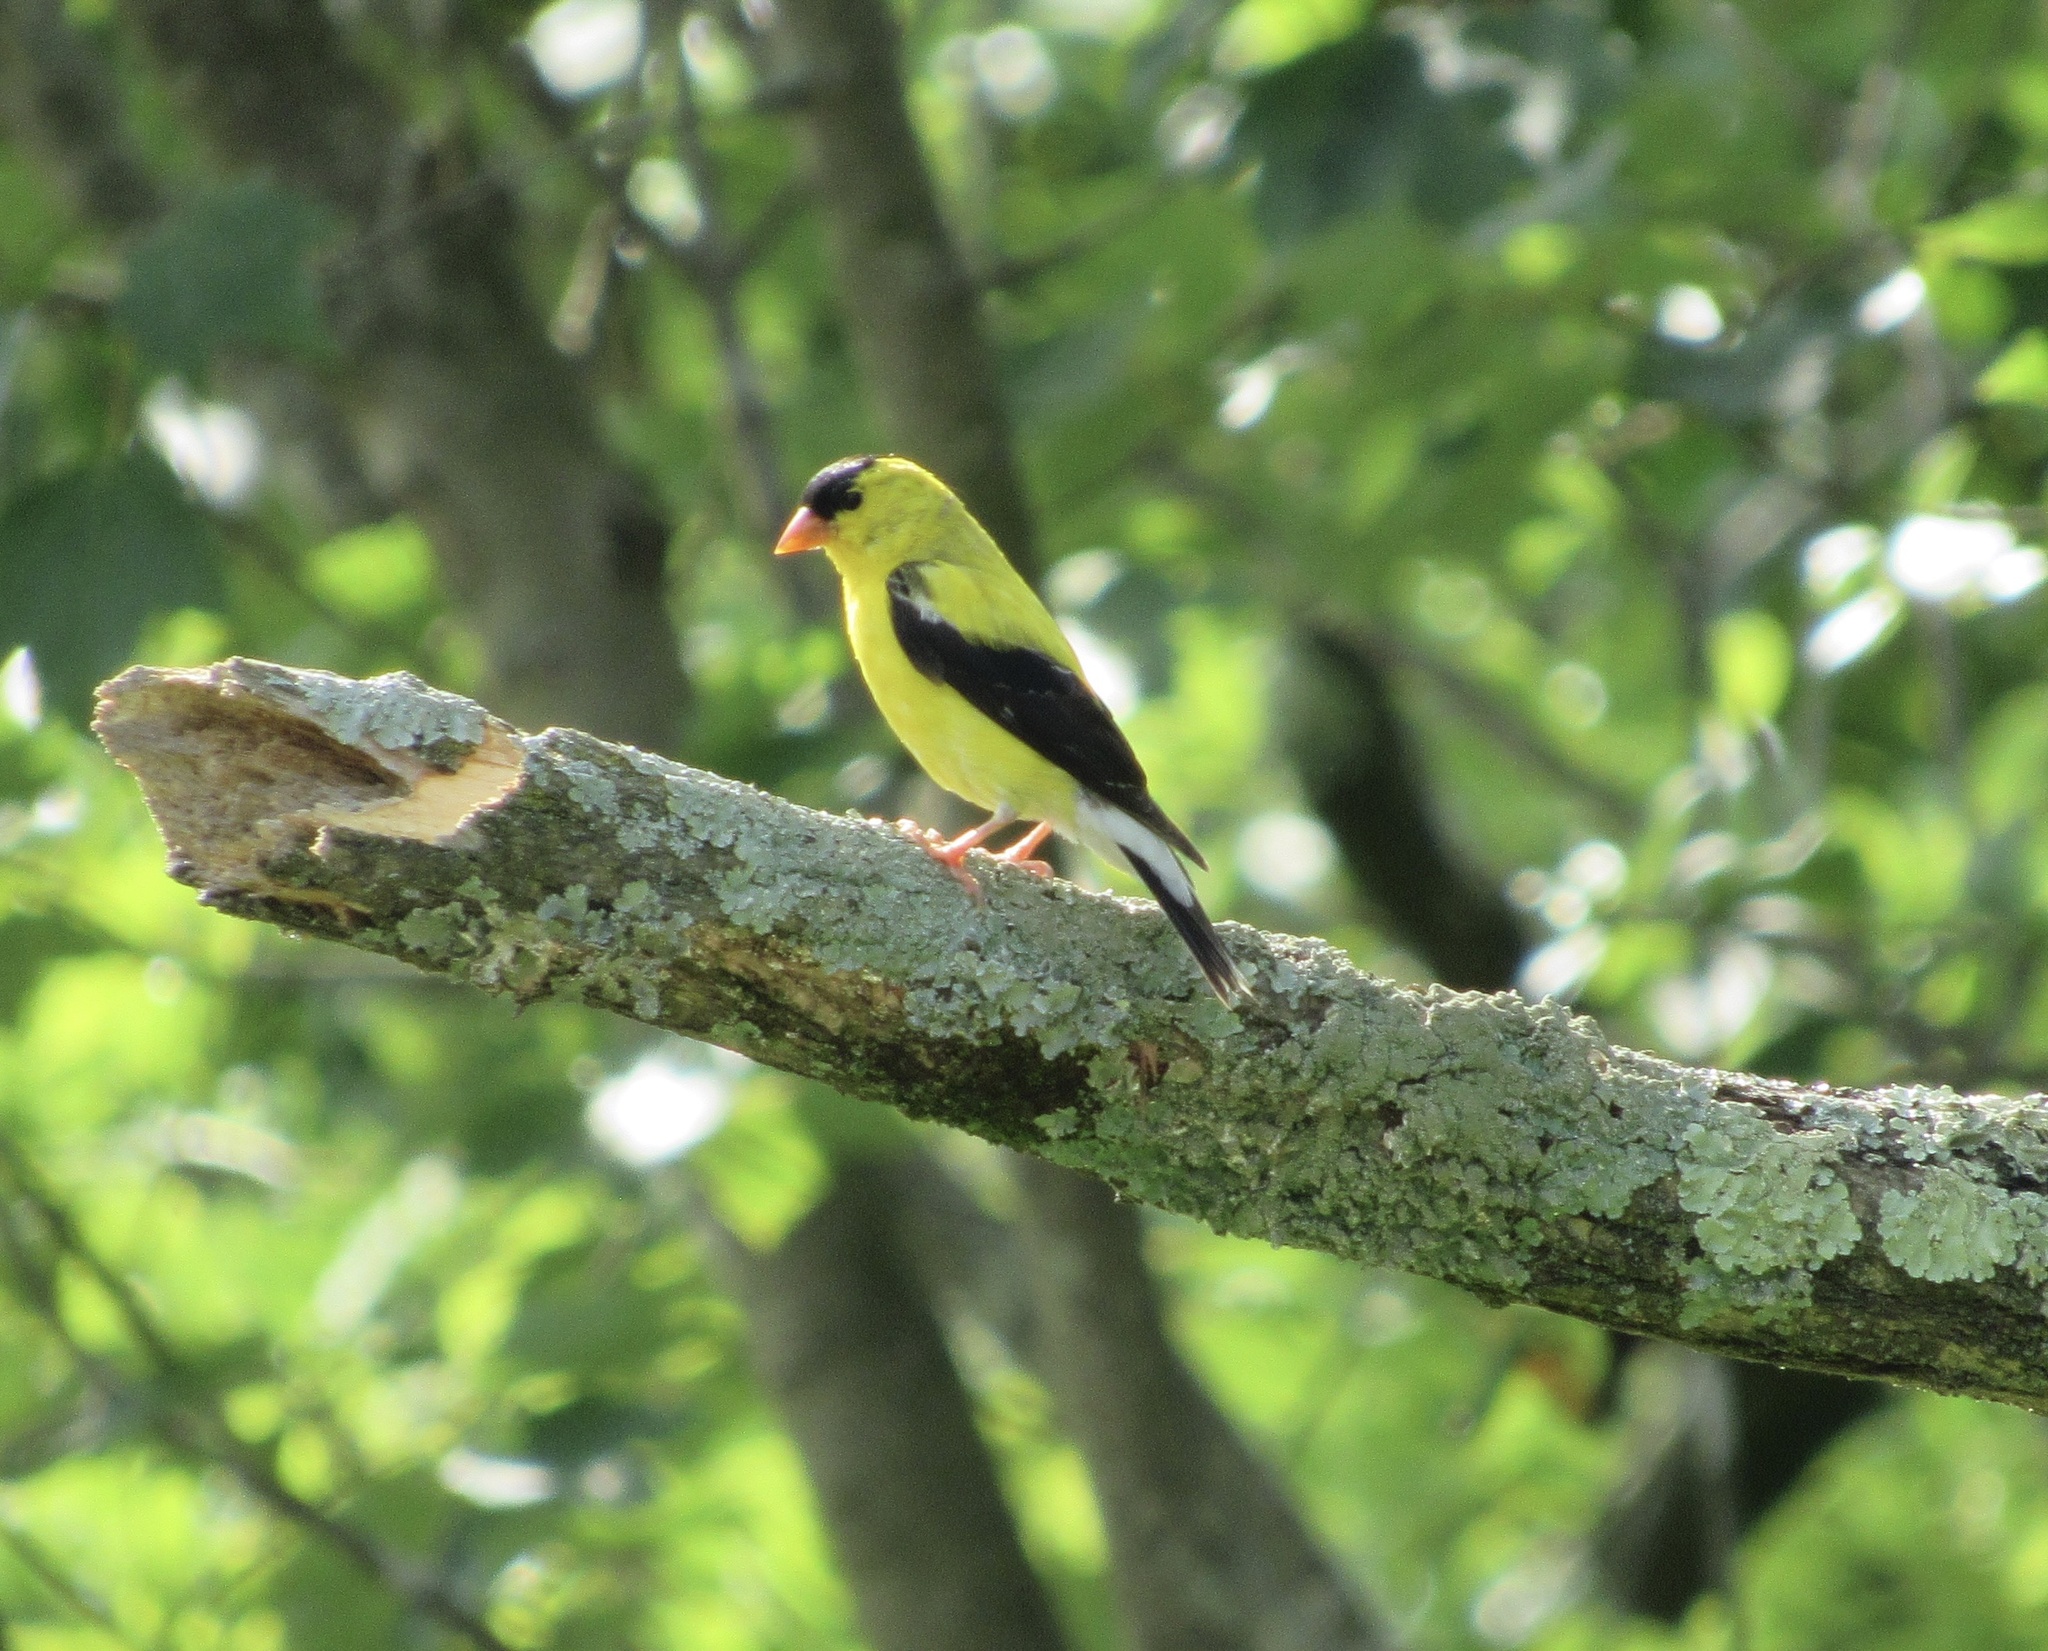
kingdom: Animalia
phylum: Chordata
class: Aves
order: Passeriformes
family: Fringillidae
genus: Spinus
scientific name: Spinus tristis
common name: American goldfinch
